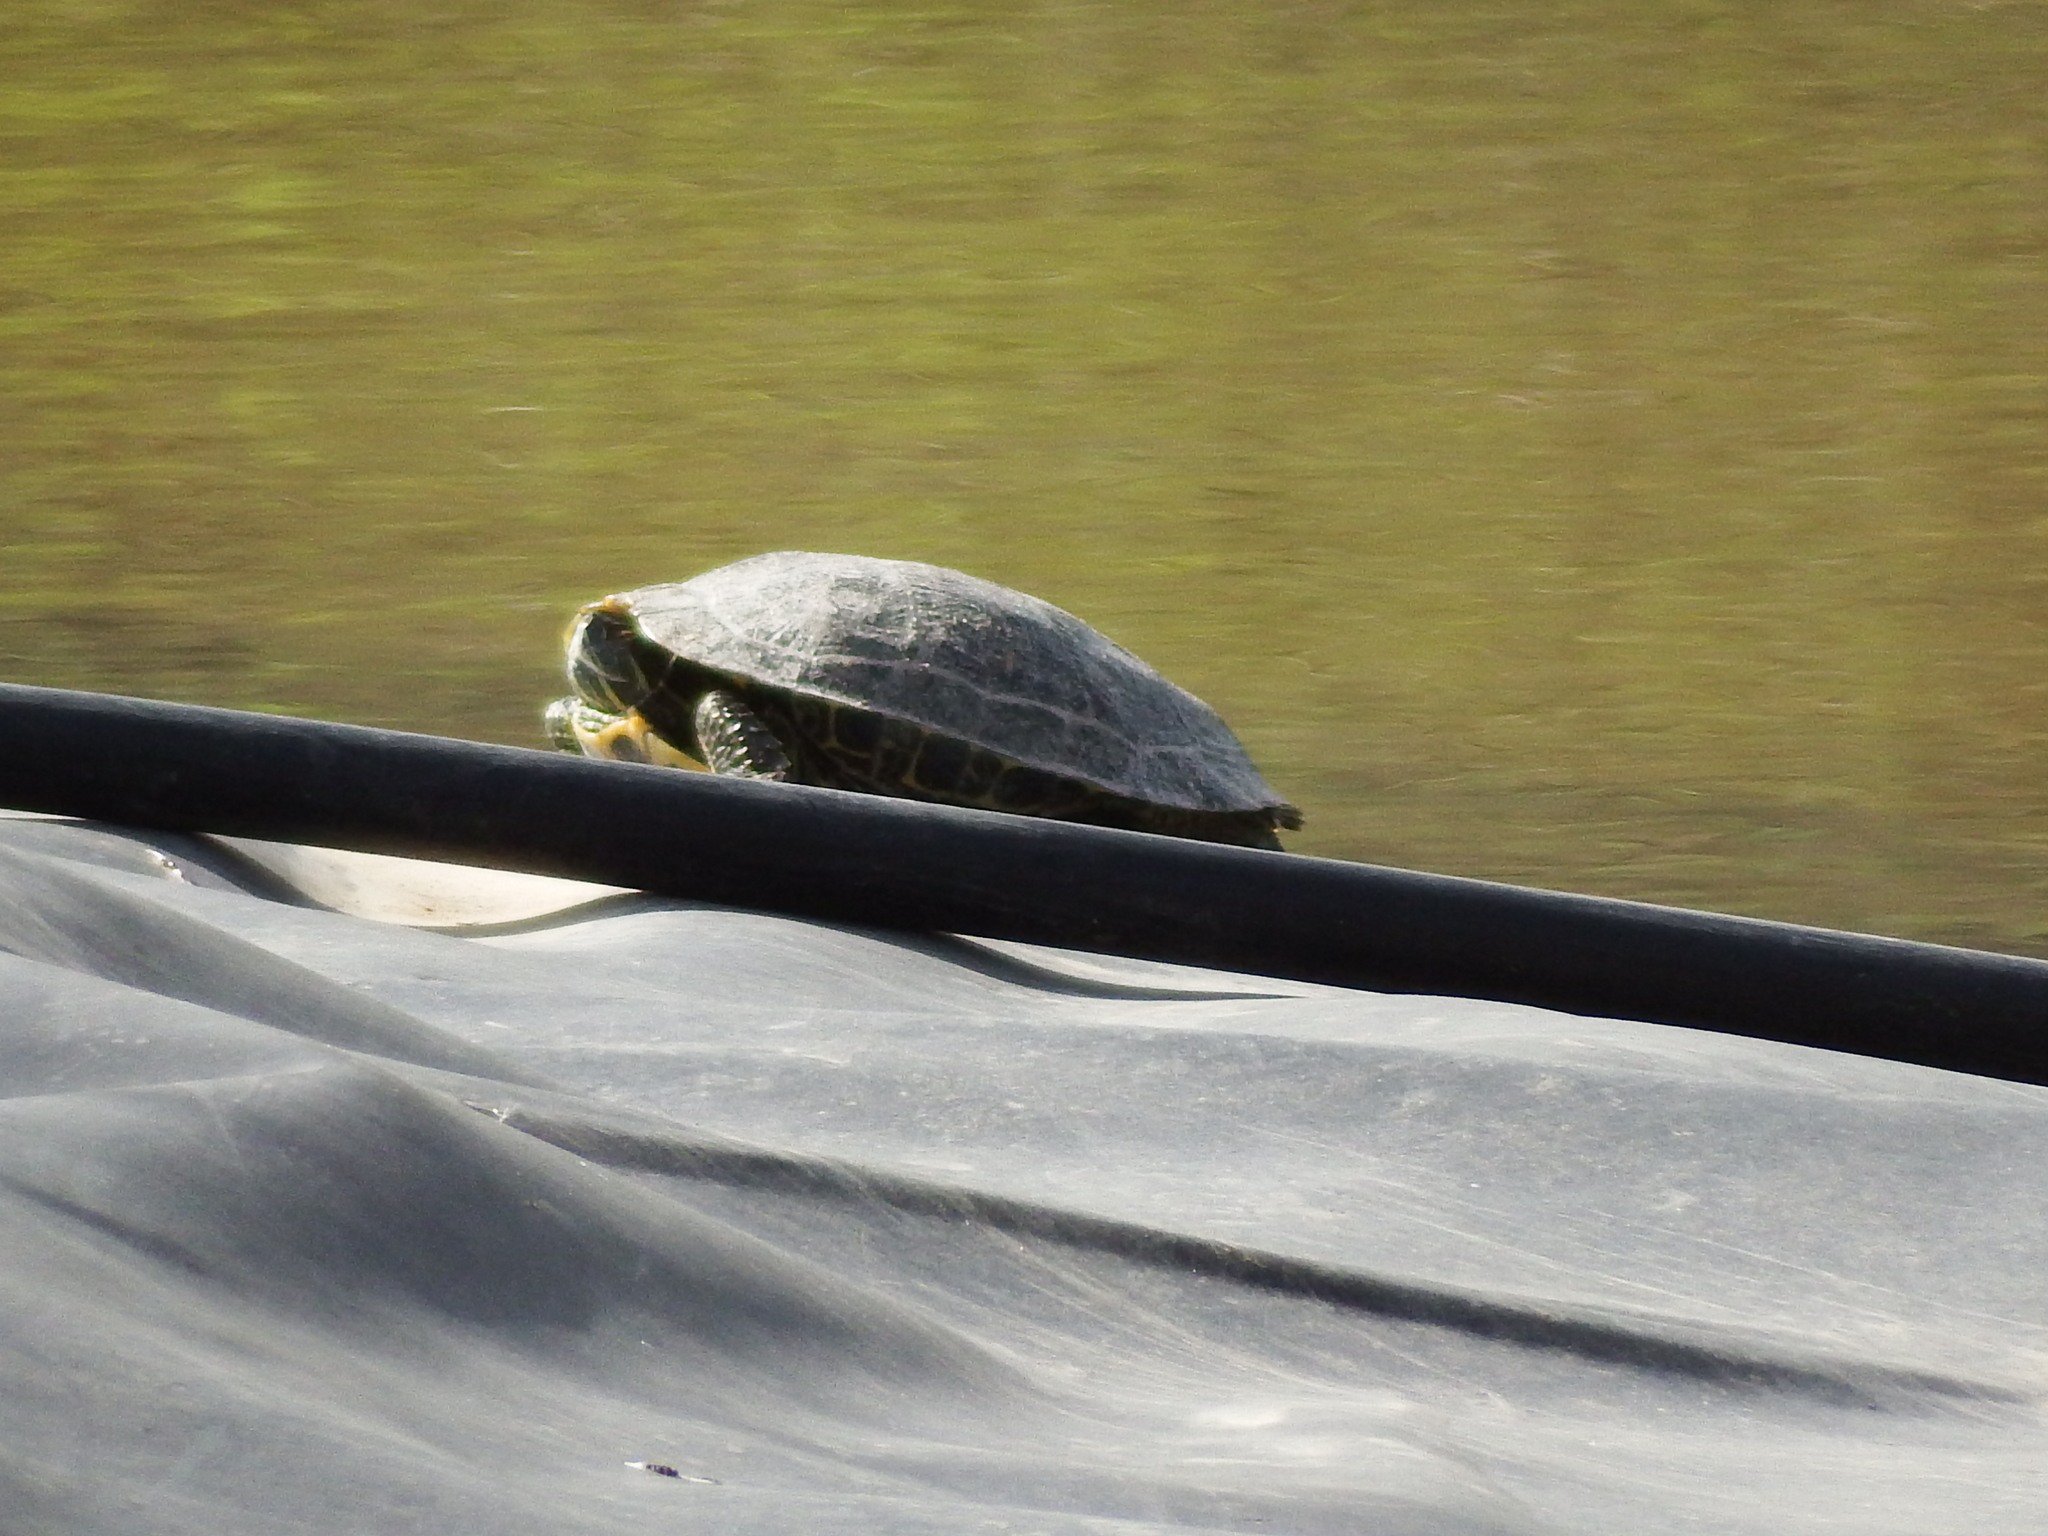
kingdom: Animalia
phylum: Chordata
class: Testudines
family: Emydidae
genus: Trachemys
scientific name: Trachemys scripta
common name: Slider
